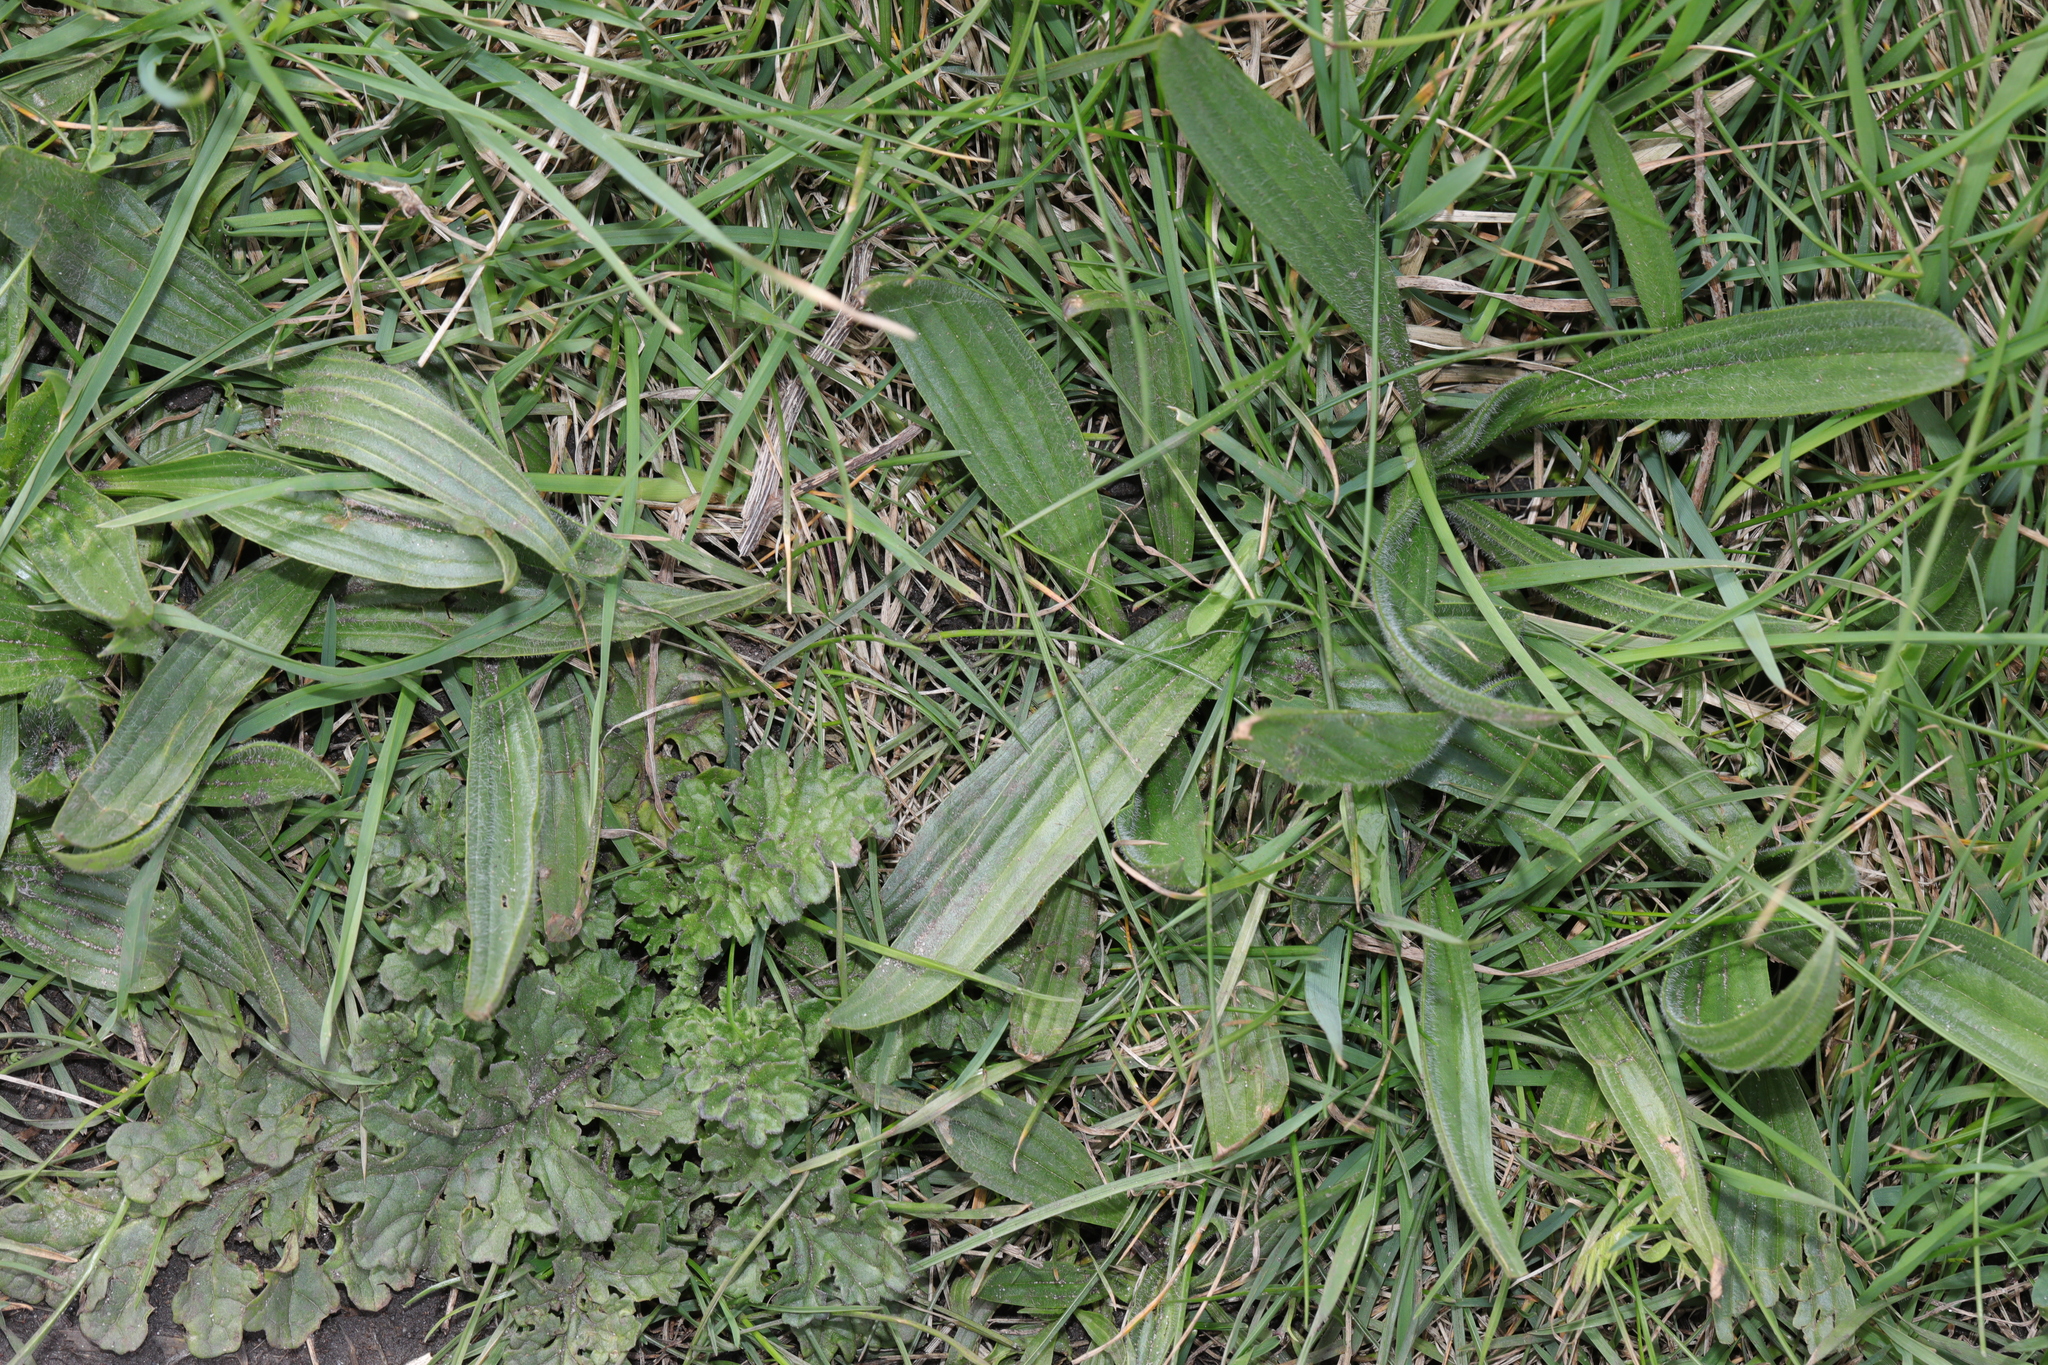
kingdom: Plantae
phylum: Tracheophyta
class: Magnoliopsida
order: Lamiales
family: Plantaginaceae
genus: Plantago
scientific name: Plantago lanceolata
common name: Ribwort plantain
